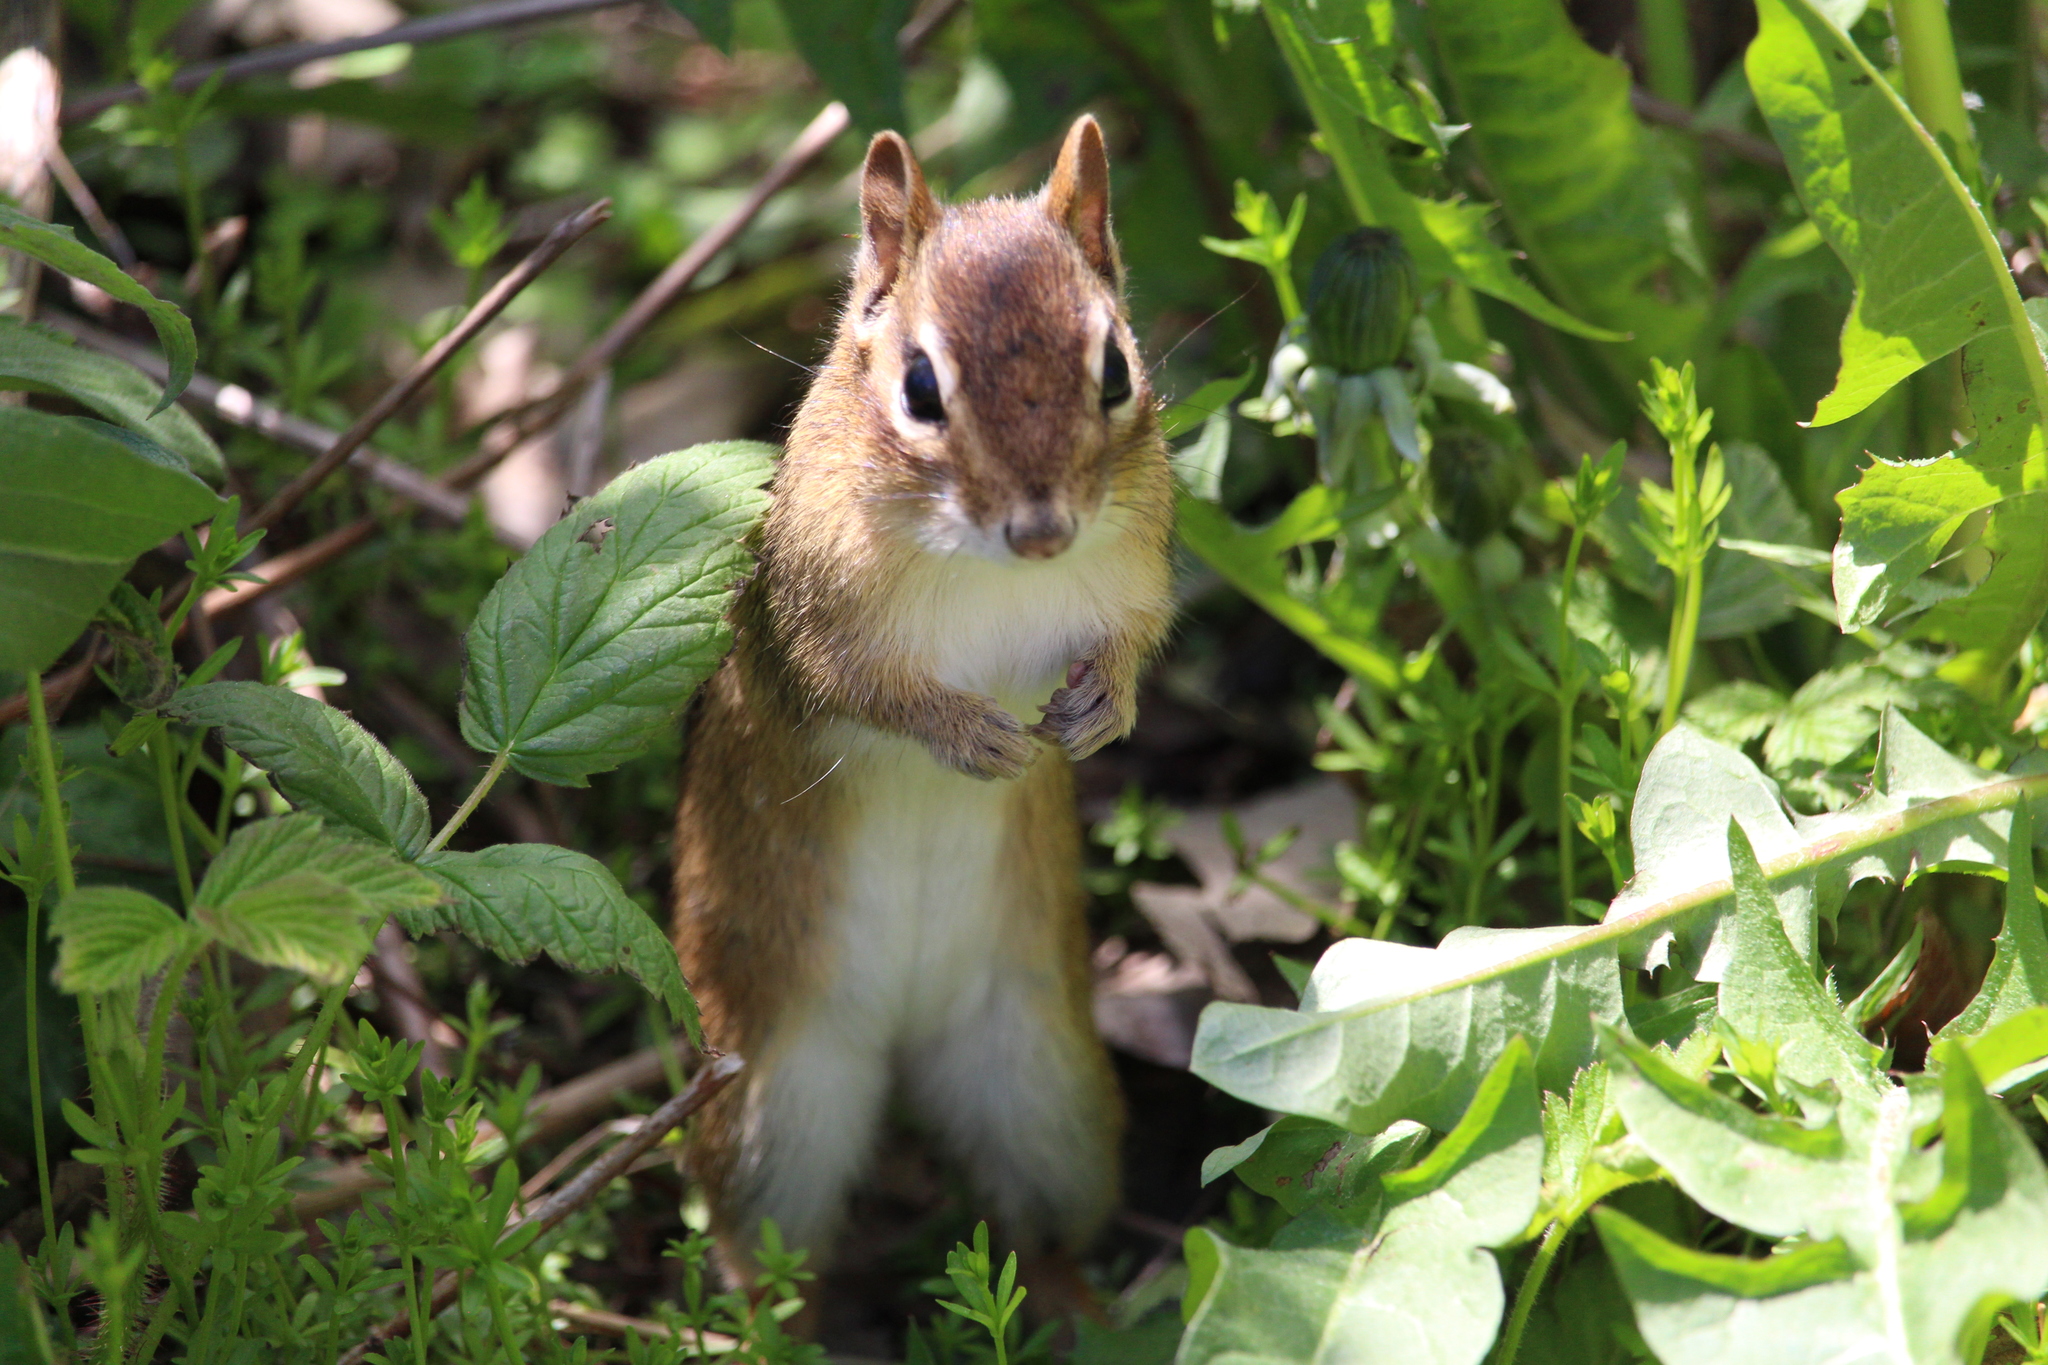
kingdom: Animalia
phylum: Chordata
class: Mammalia
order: Rodentia
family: Sciuridae
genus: Tamias
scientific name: Tamias striatus
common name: Eastern chipmunk
